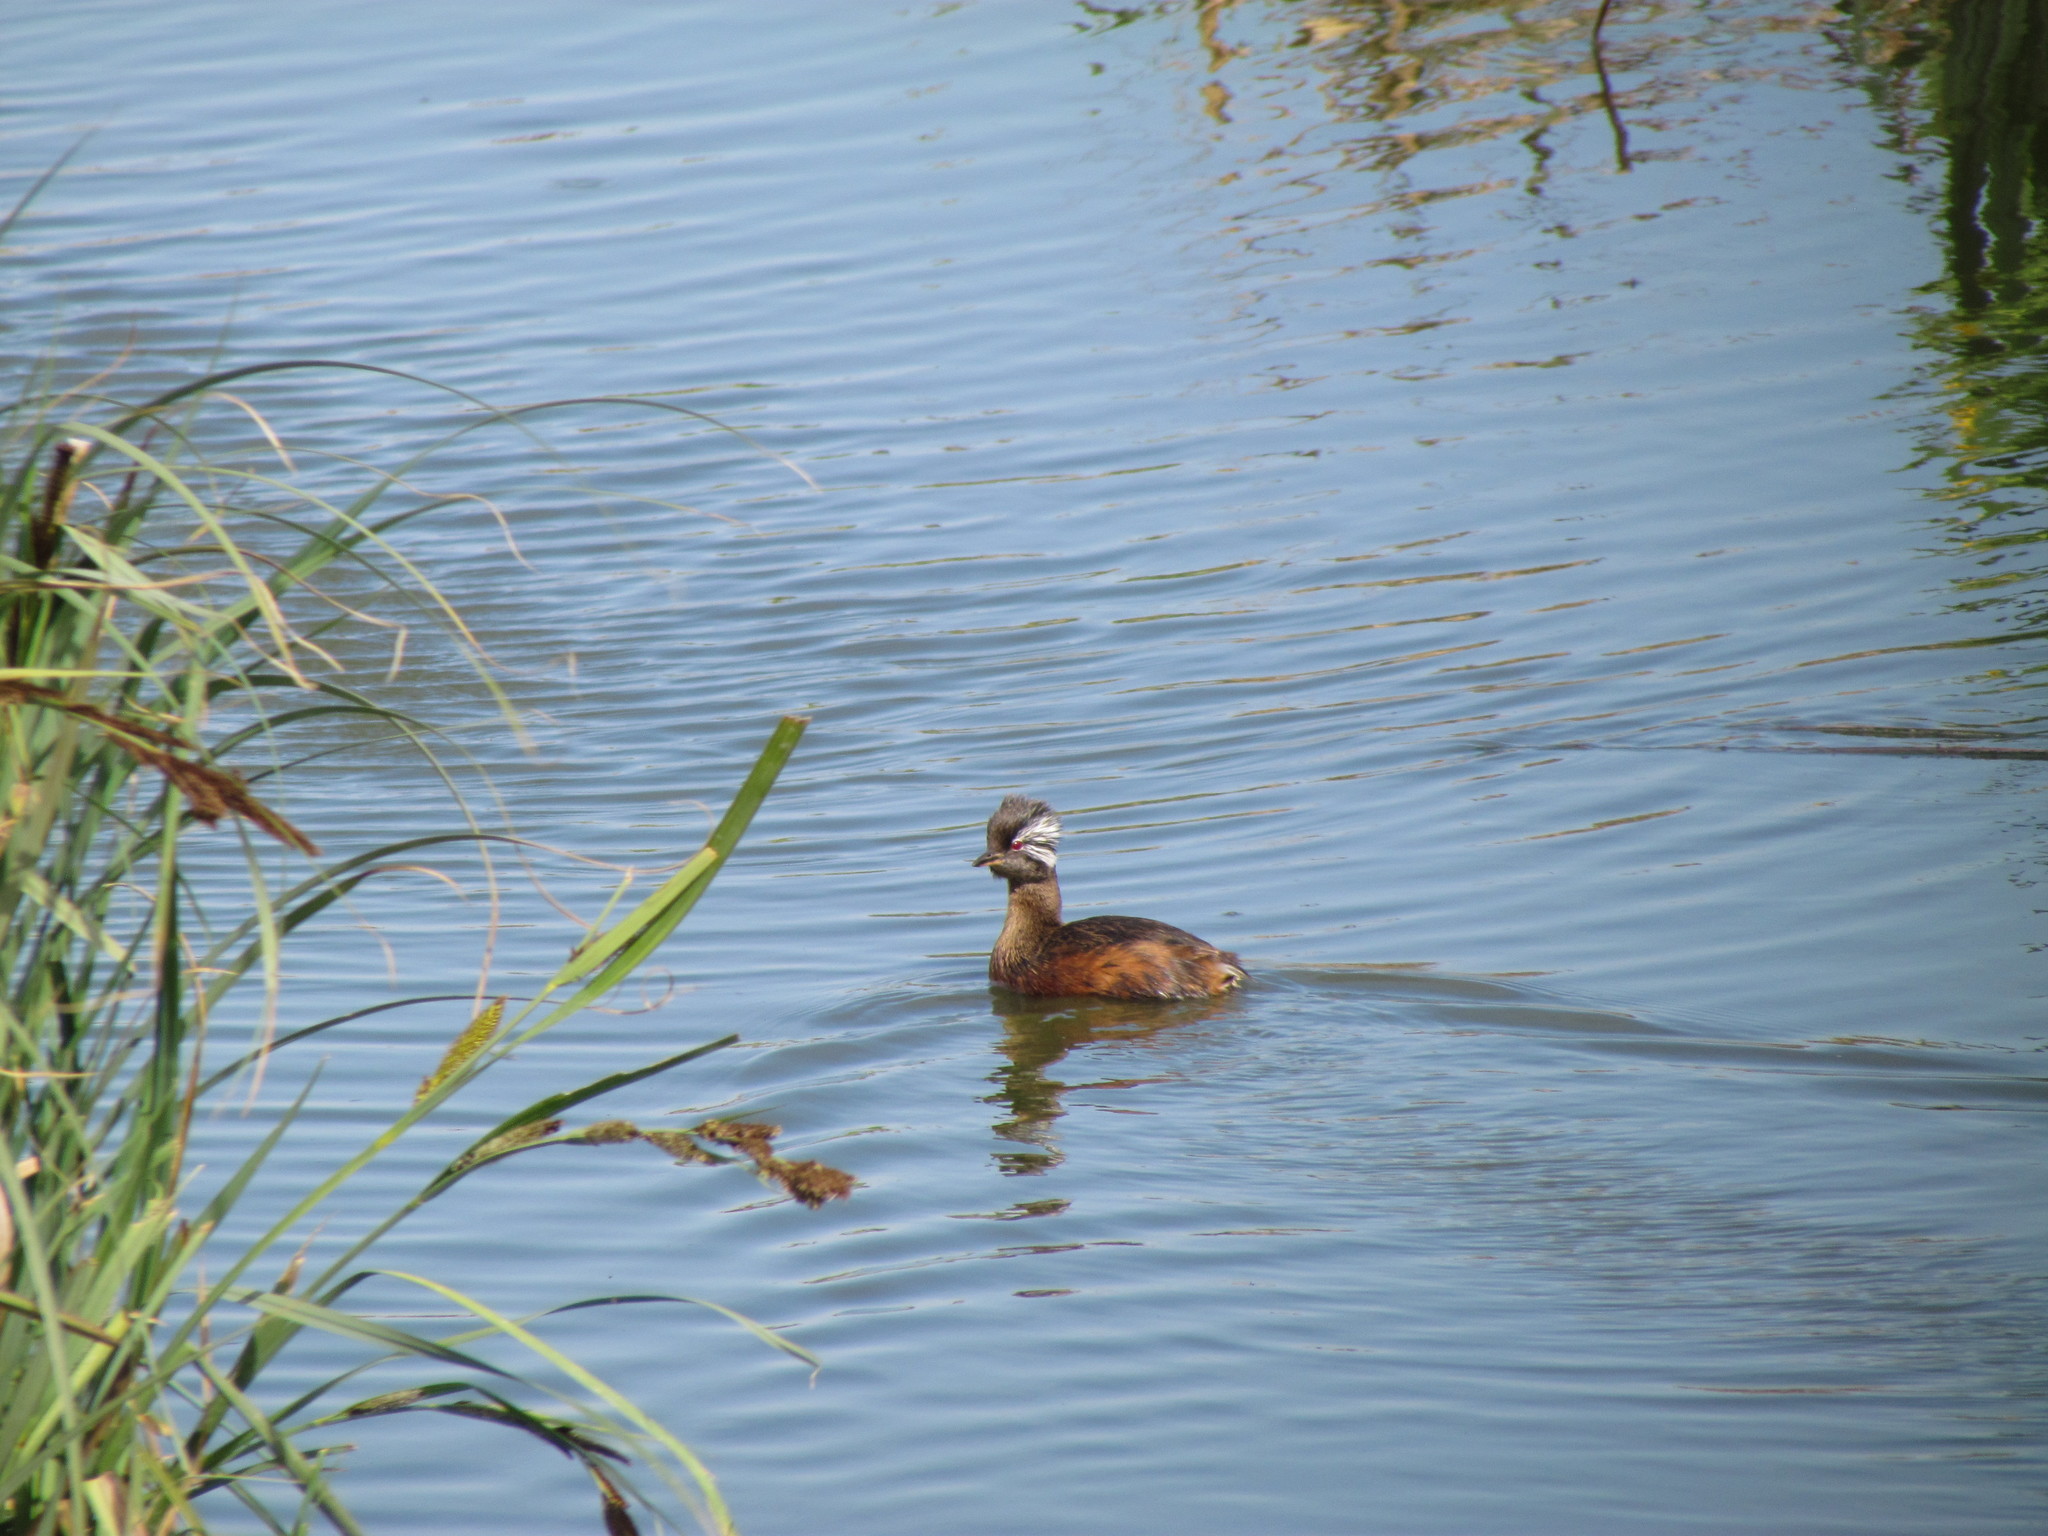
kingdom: Animalia
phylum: Chordata
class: Aves
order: Podicipediformes
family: Podicipedidae
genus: Rollandia
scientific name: Rollandia rolland
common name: White-tufted grebe
